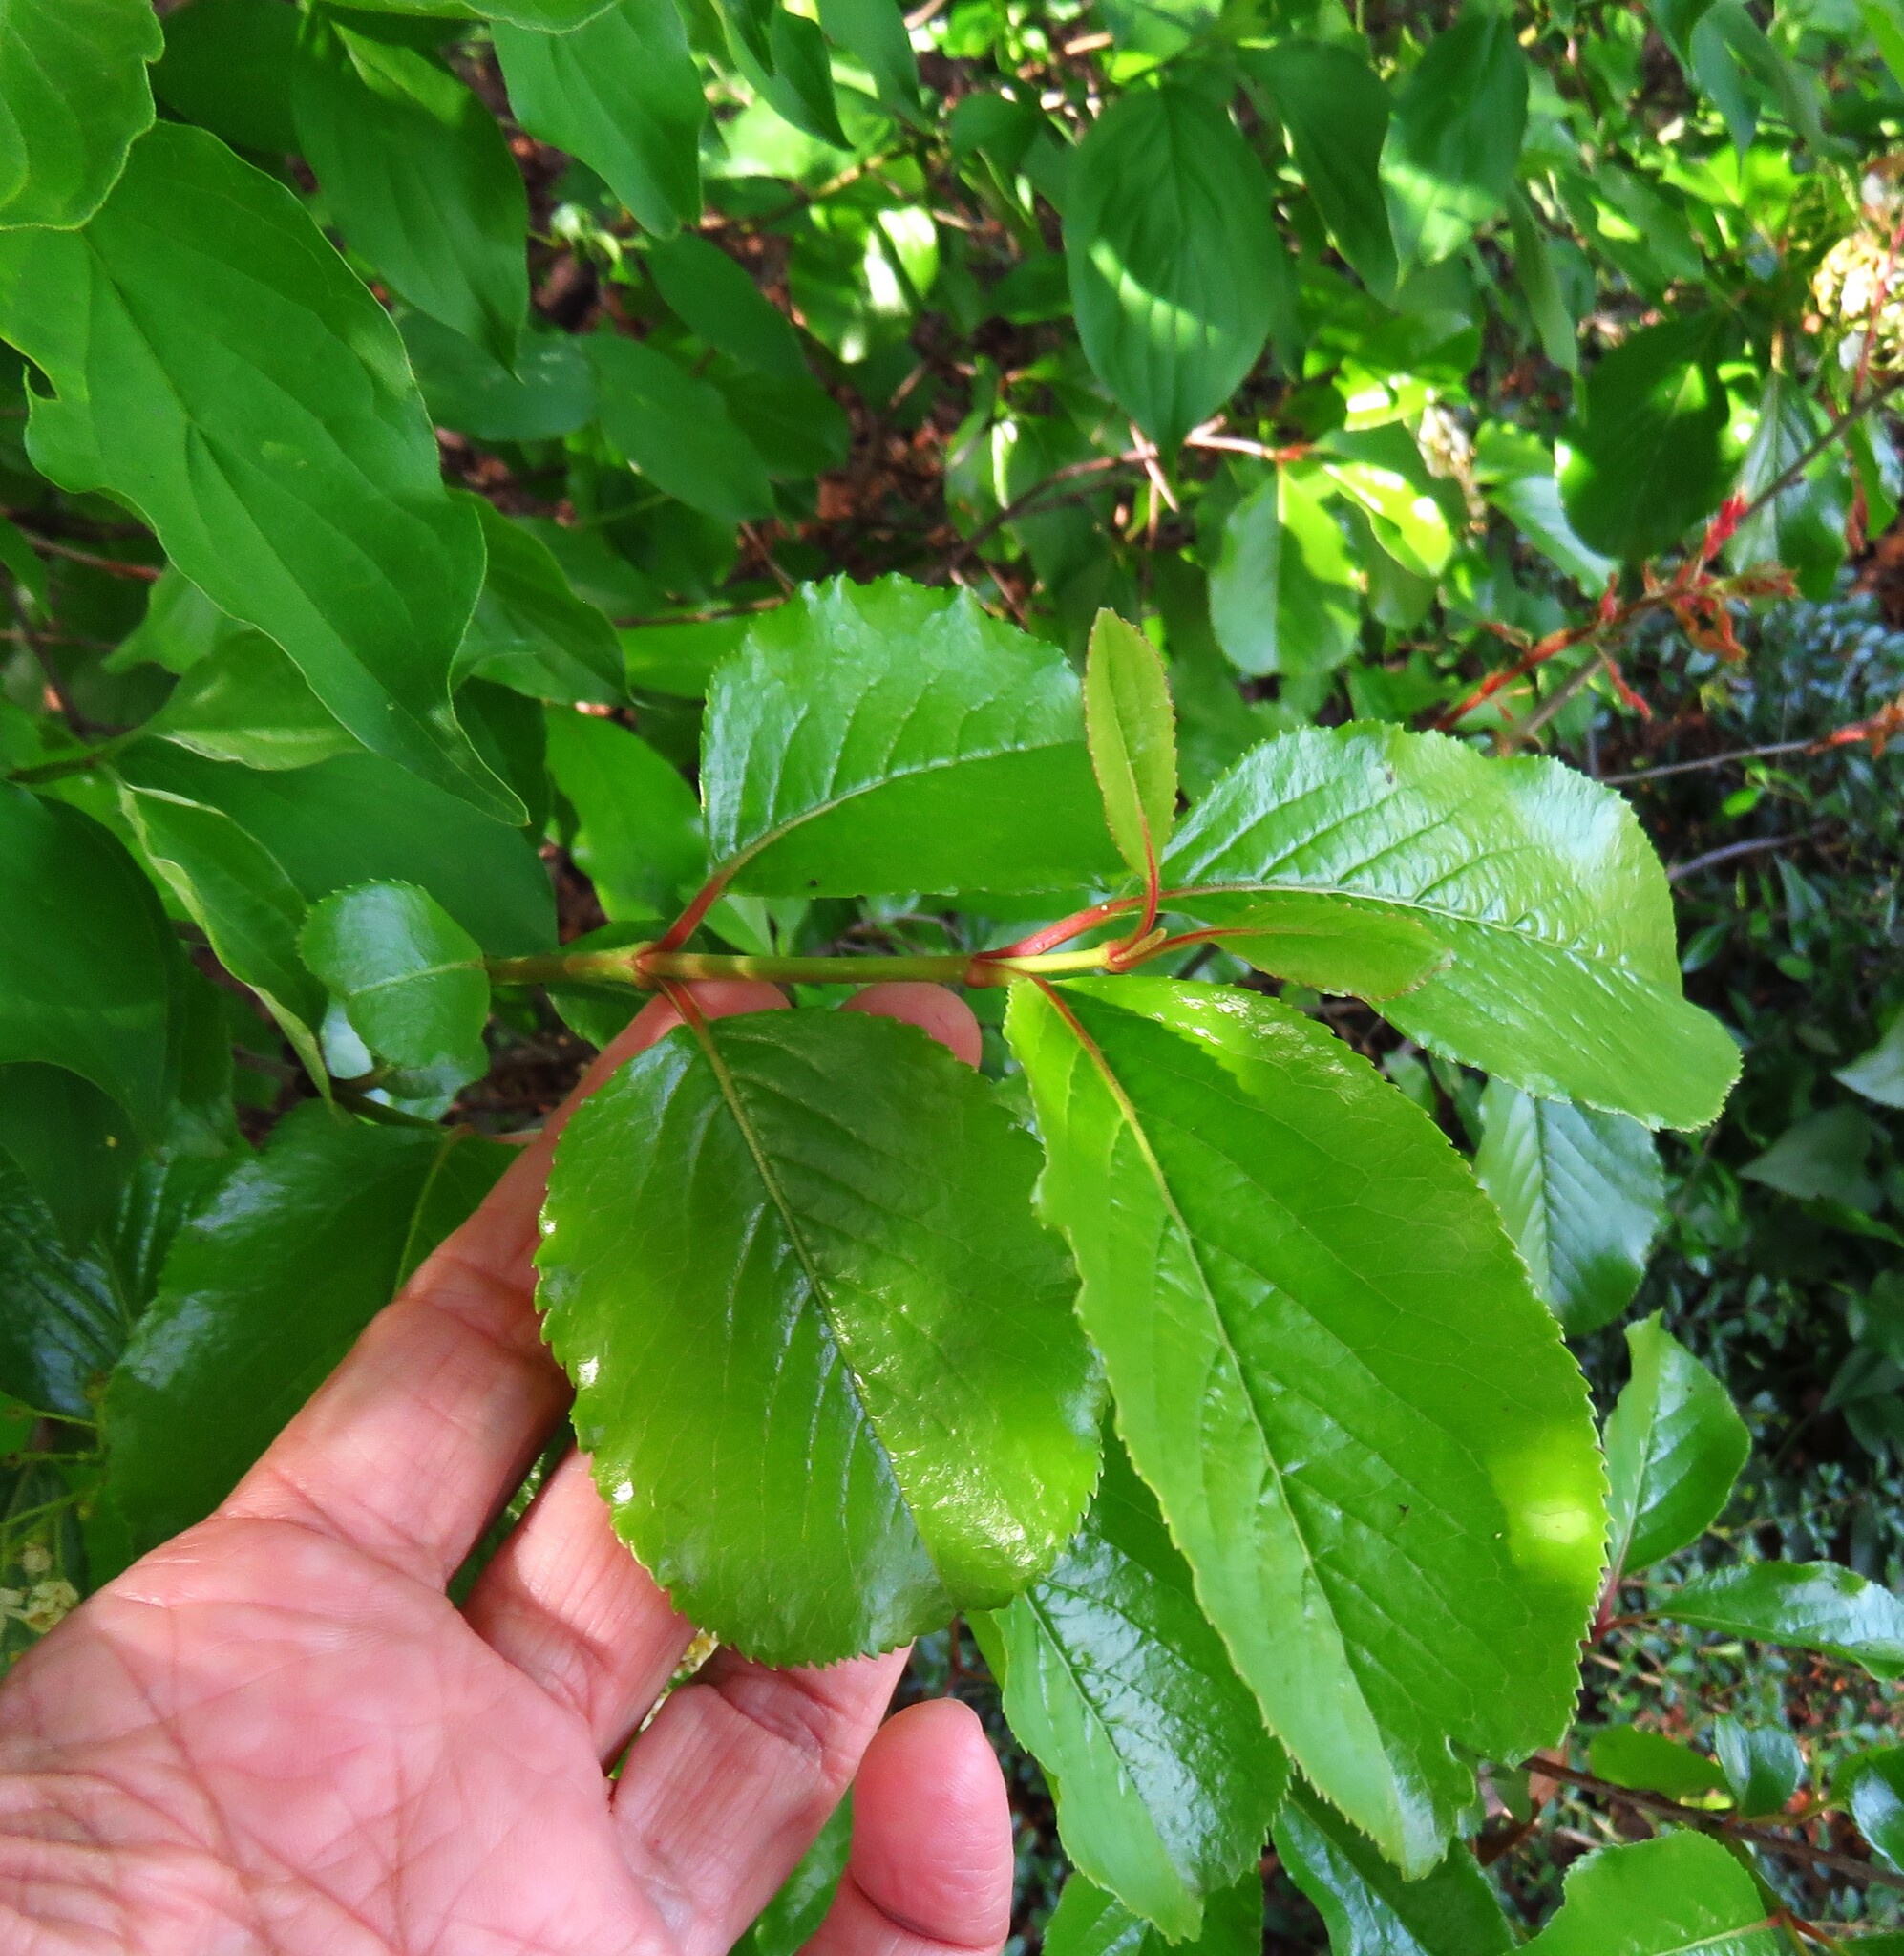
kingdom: Plantae
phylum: Tracheophyta
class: Magnoliopsida
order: Dipsacales
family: Viburnaceae
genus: Viburnum
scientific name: Viburnum rufidulum
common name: Blue haw
